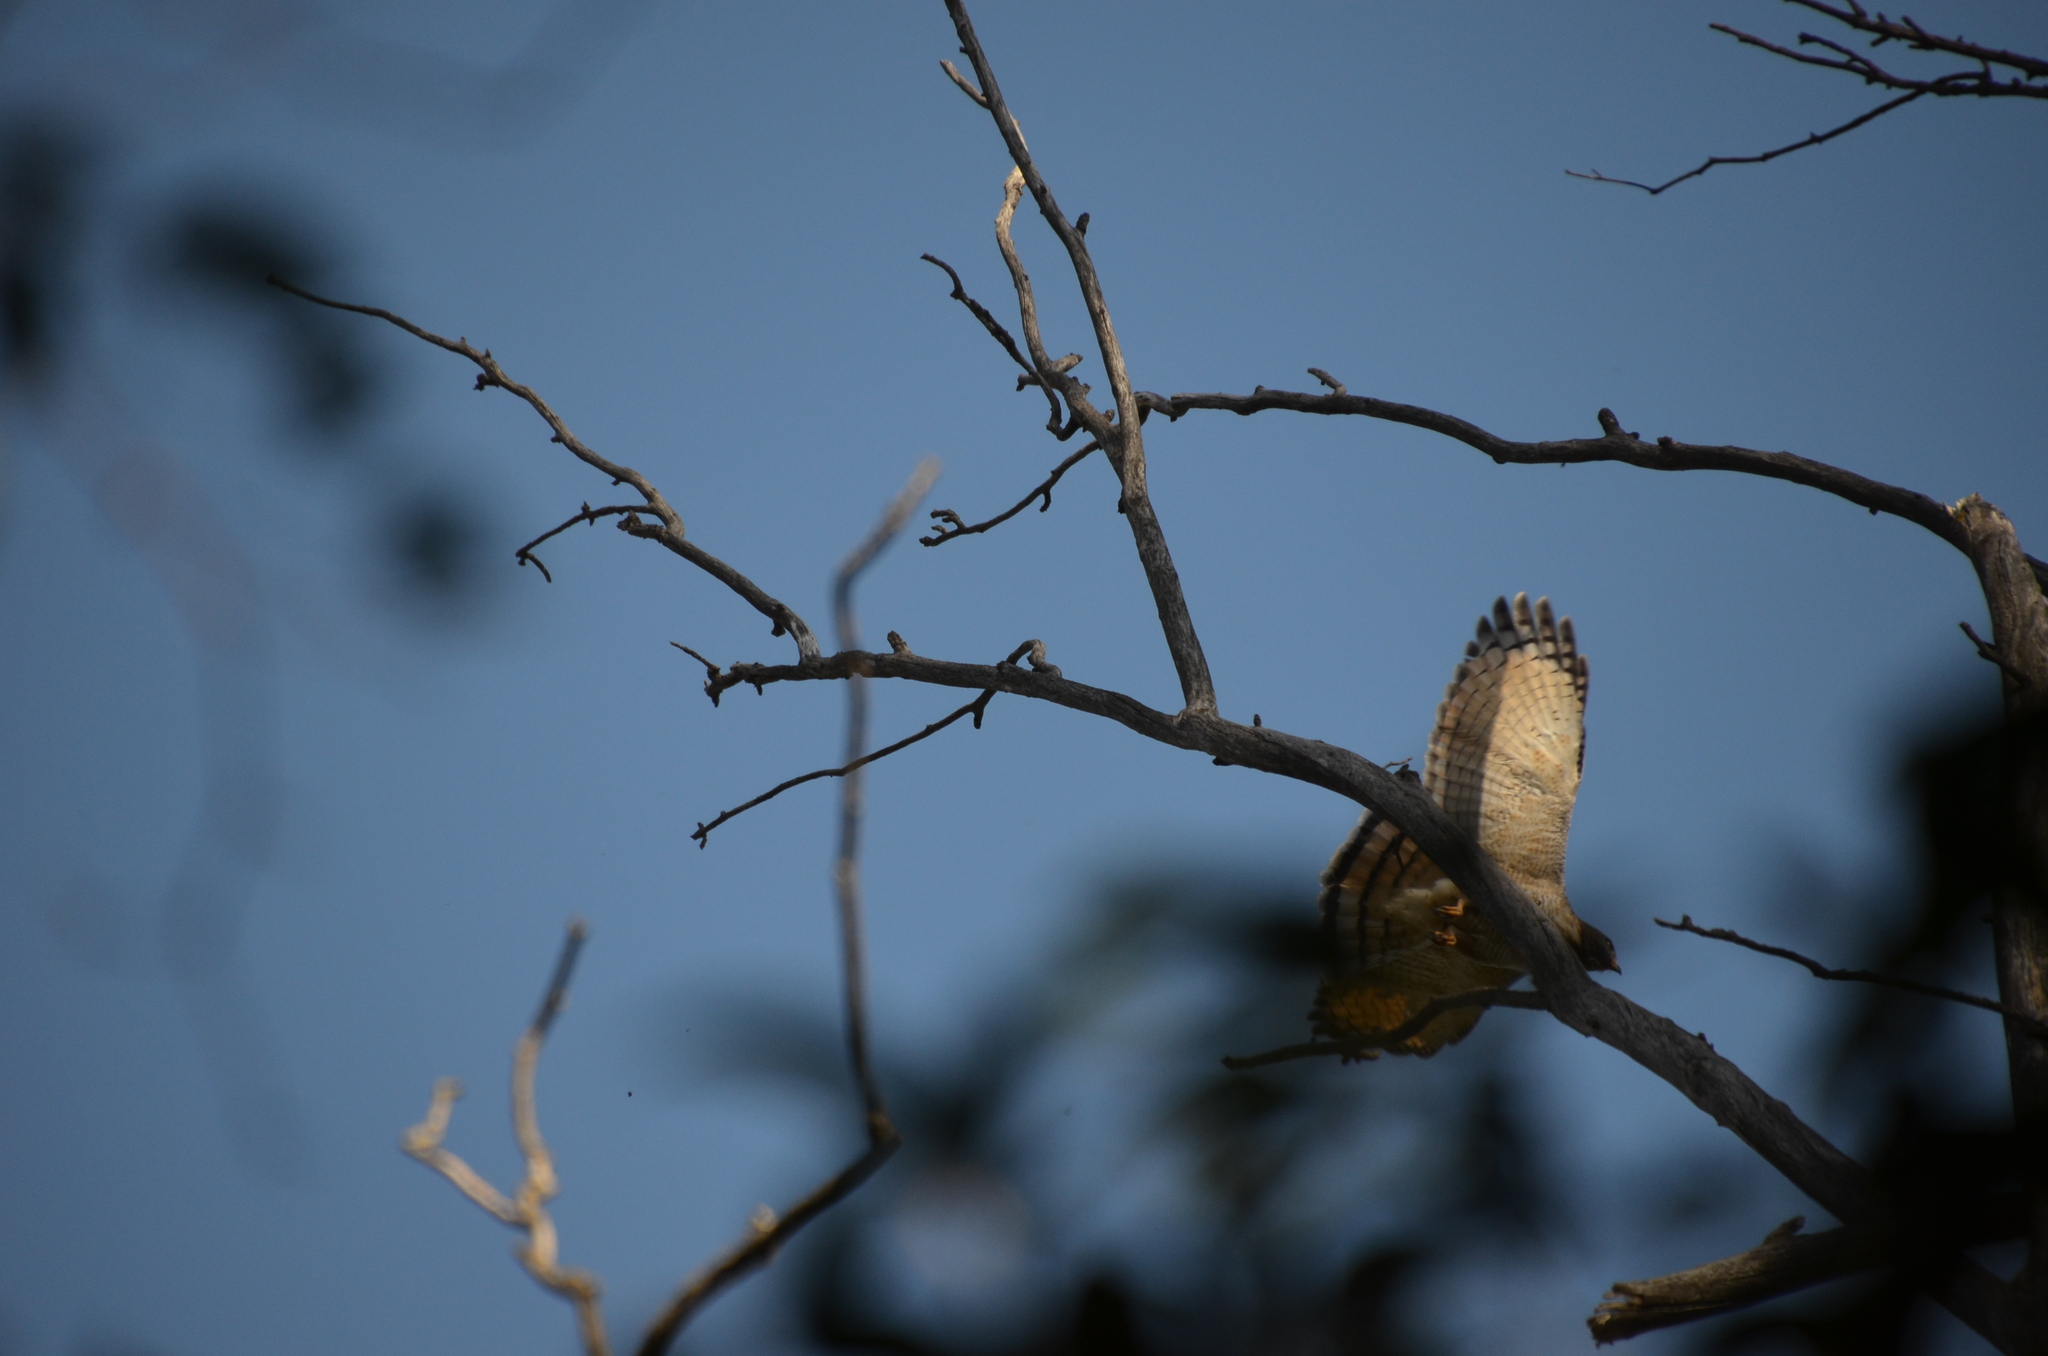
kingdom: Animalia
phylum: Chordata
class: Aves
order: Accipitriformes
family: Accipitridae
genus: Rupornis
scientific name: Rupornis magnirostris
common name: Roadside hawk
